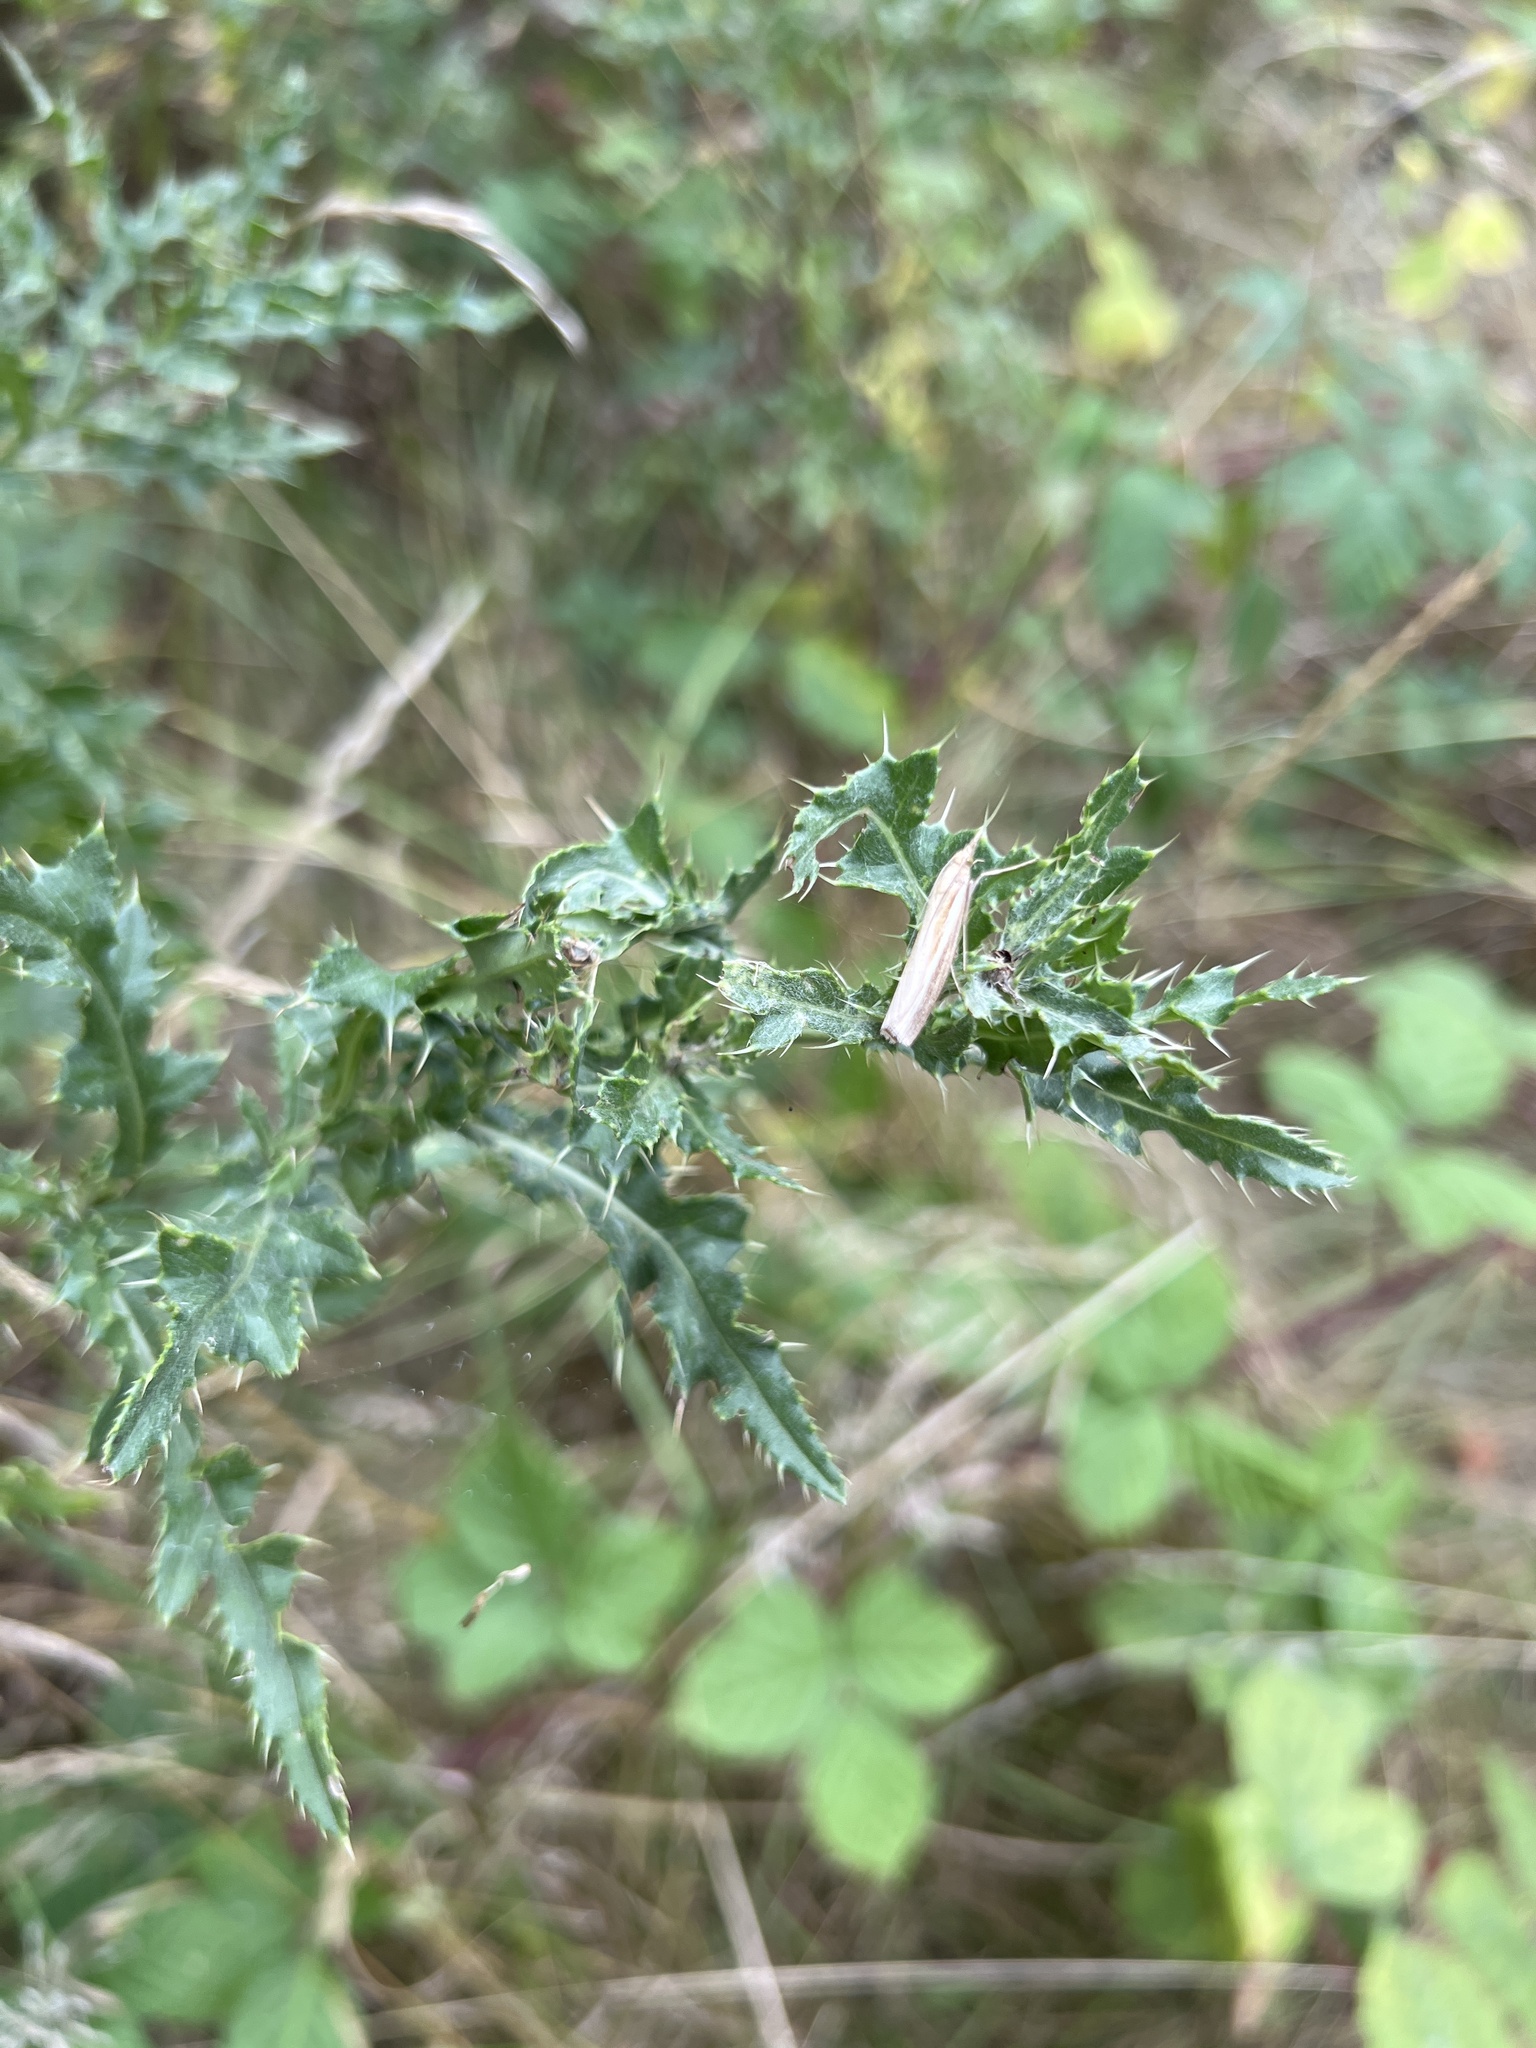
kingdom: Animalia
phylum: Arthropoda
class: Insecta
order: Lepidoptera
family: Crambidae
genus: Agriphila
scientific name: Agriphila tristellus
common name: Common grass-veneer
